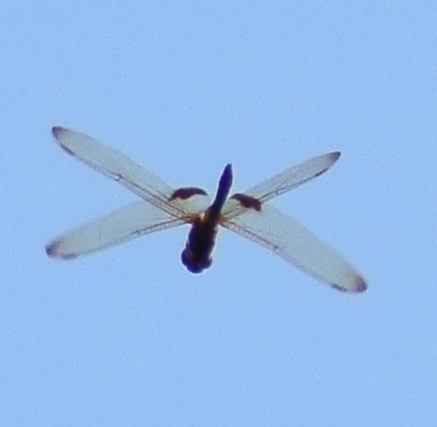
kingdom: Animalia
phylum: Arthropoda
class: Insecta
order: Odonata
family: Libellulidae
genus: Hydrobasileus
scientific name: Hydrobasileus croceus
